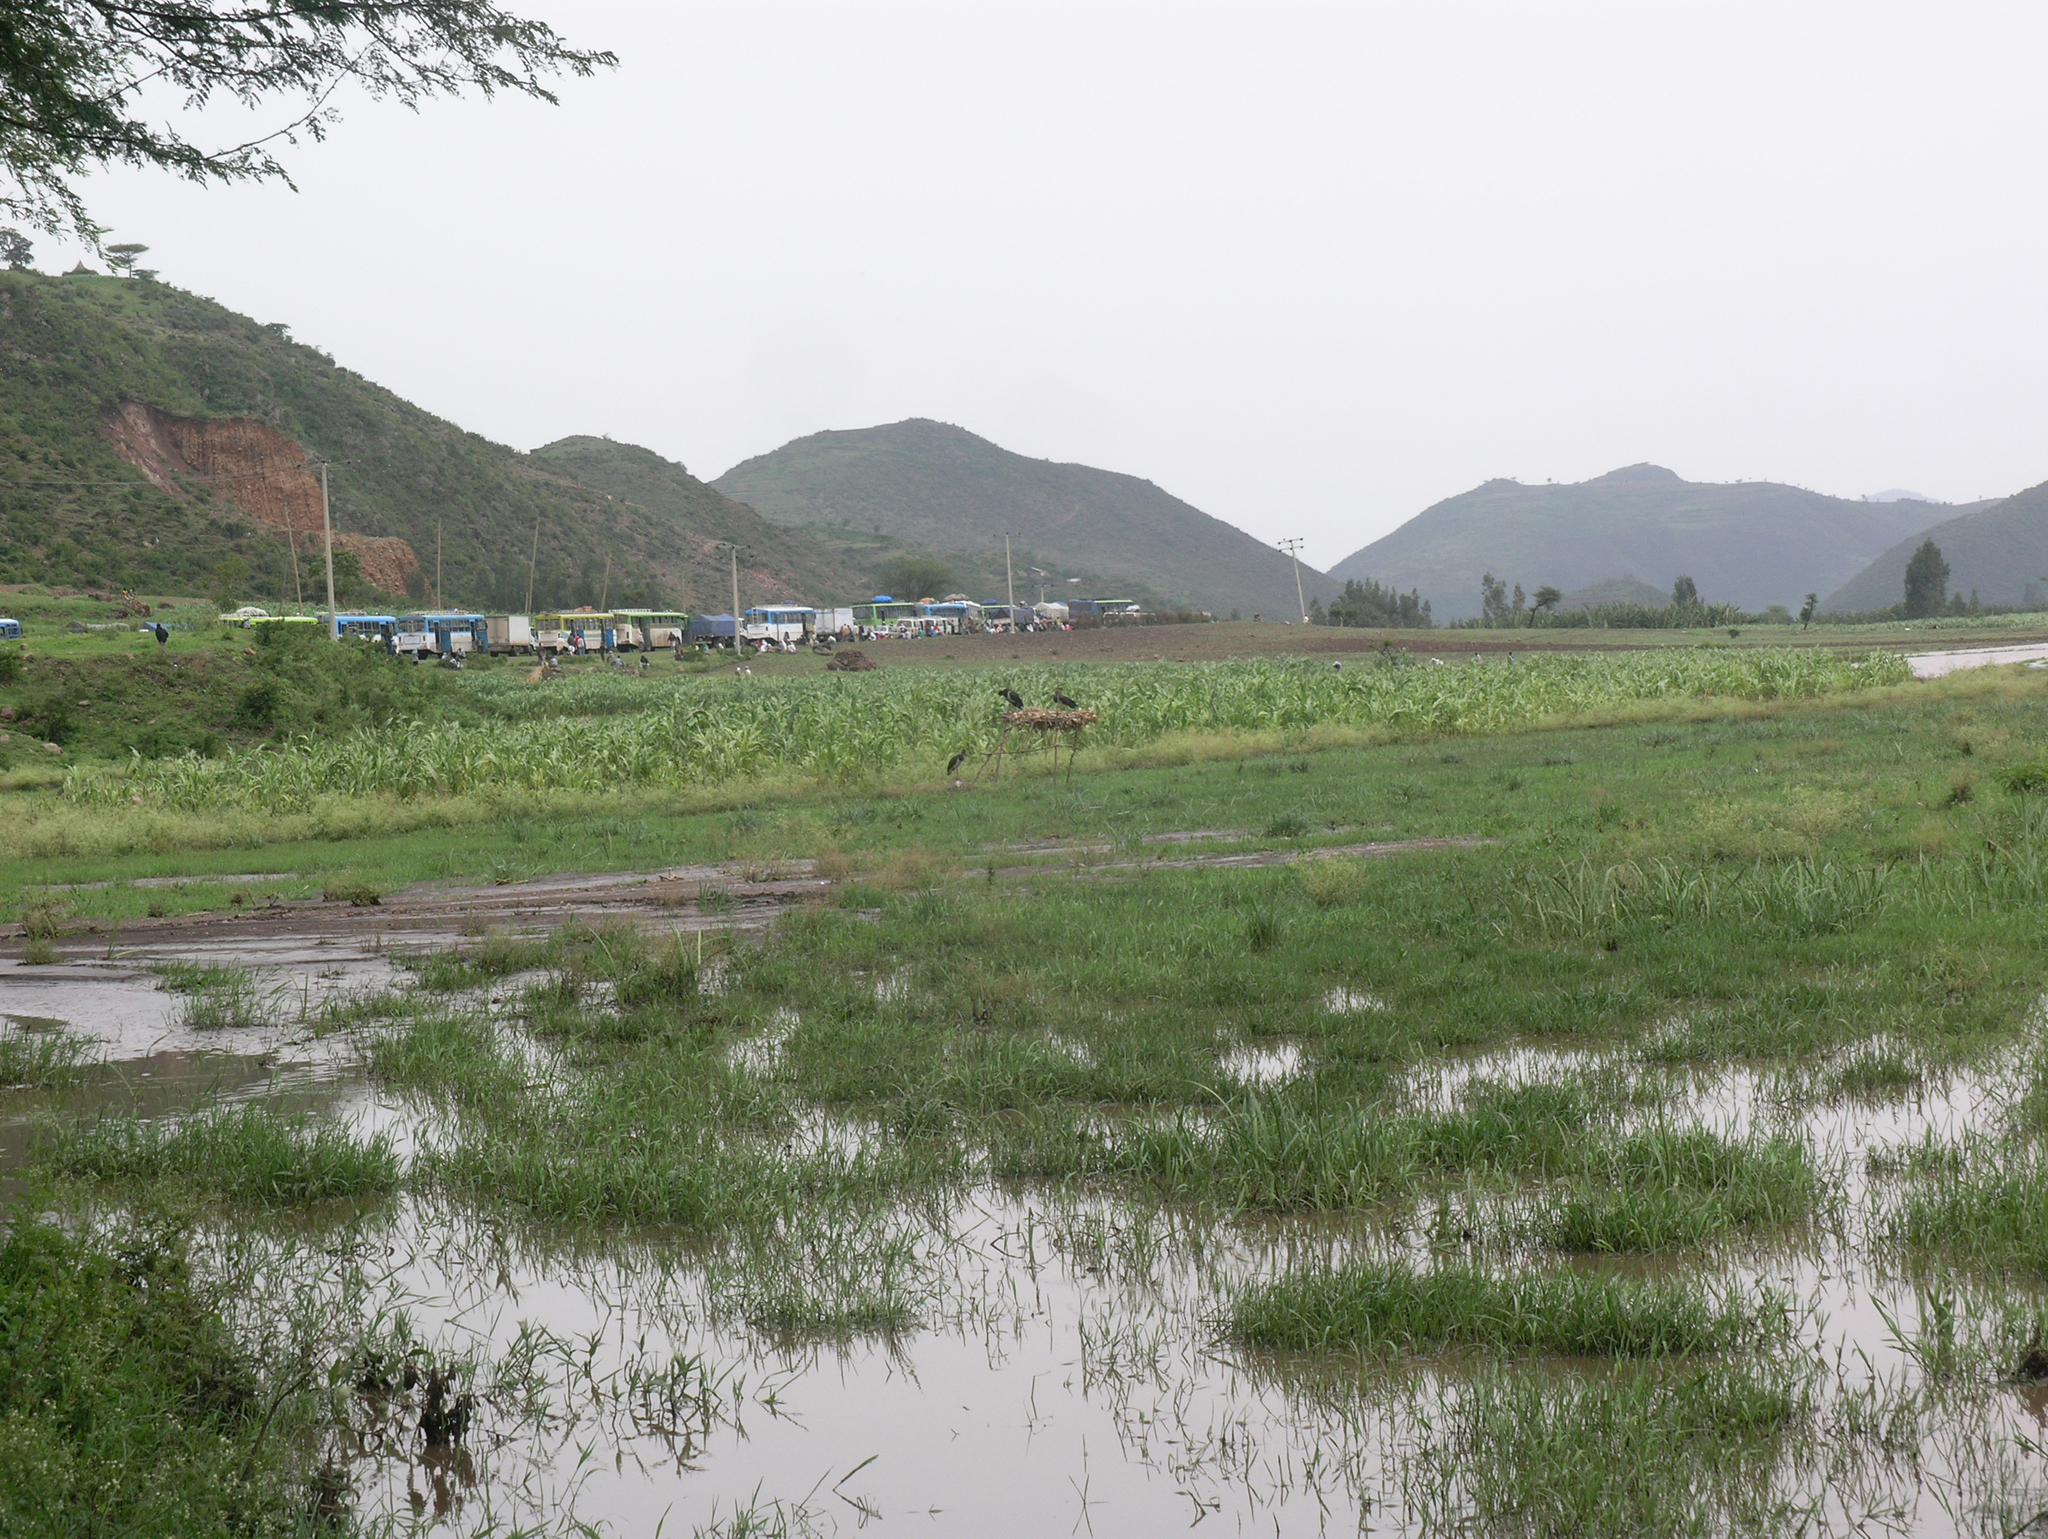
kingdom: Animalia
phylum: Arthropoda
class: Insecta
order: Odonata
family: Coenagrionidae
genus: Ceriagrion
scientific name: Ceriagrion glabrum
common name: Common pond damsel
